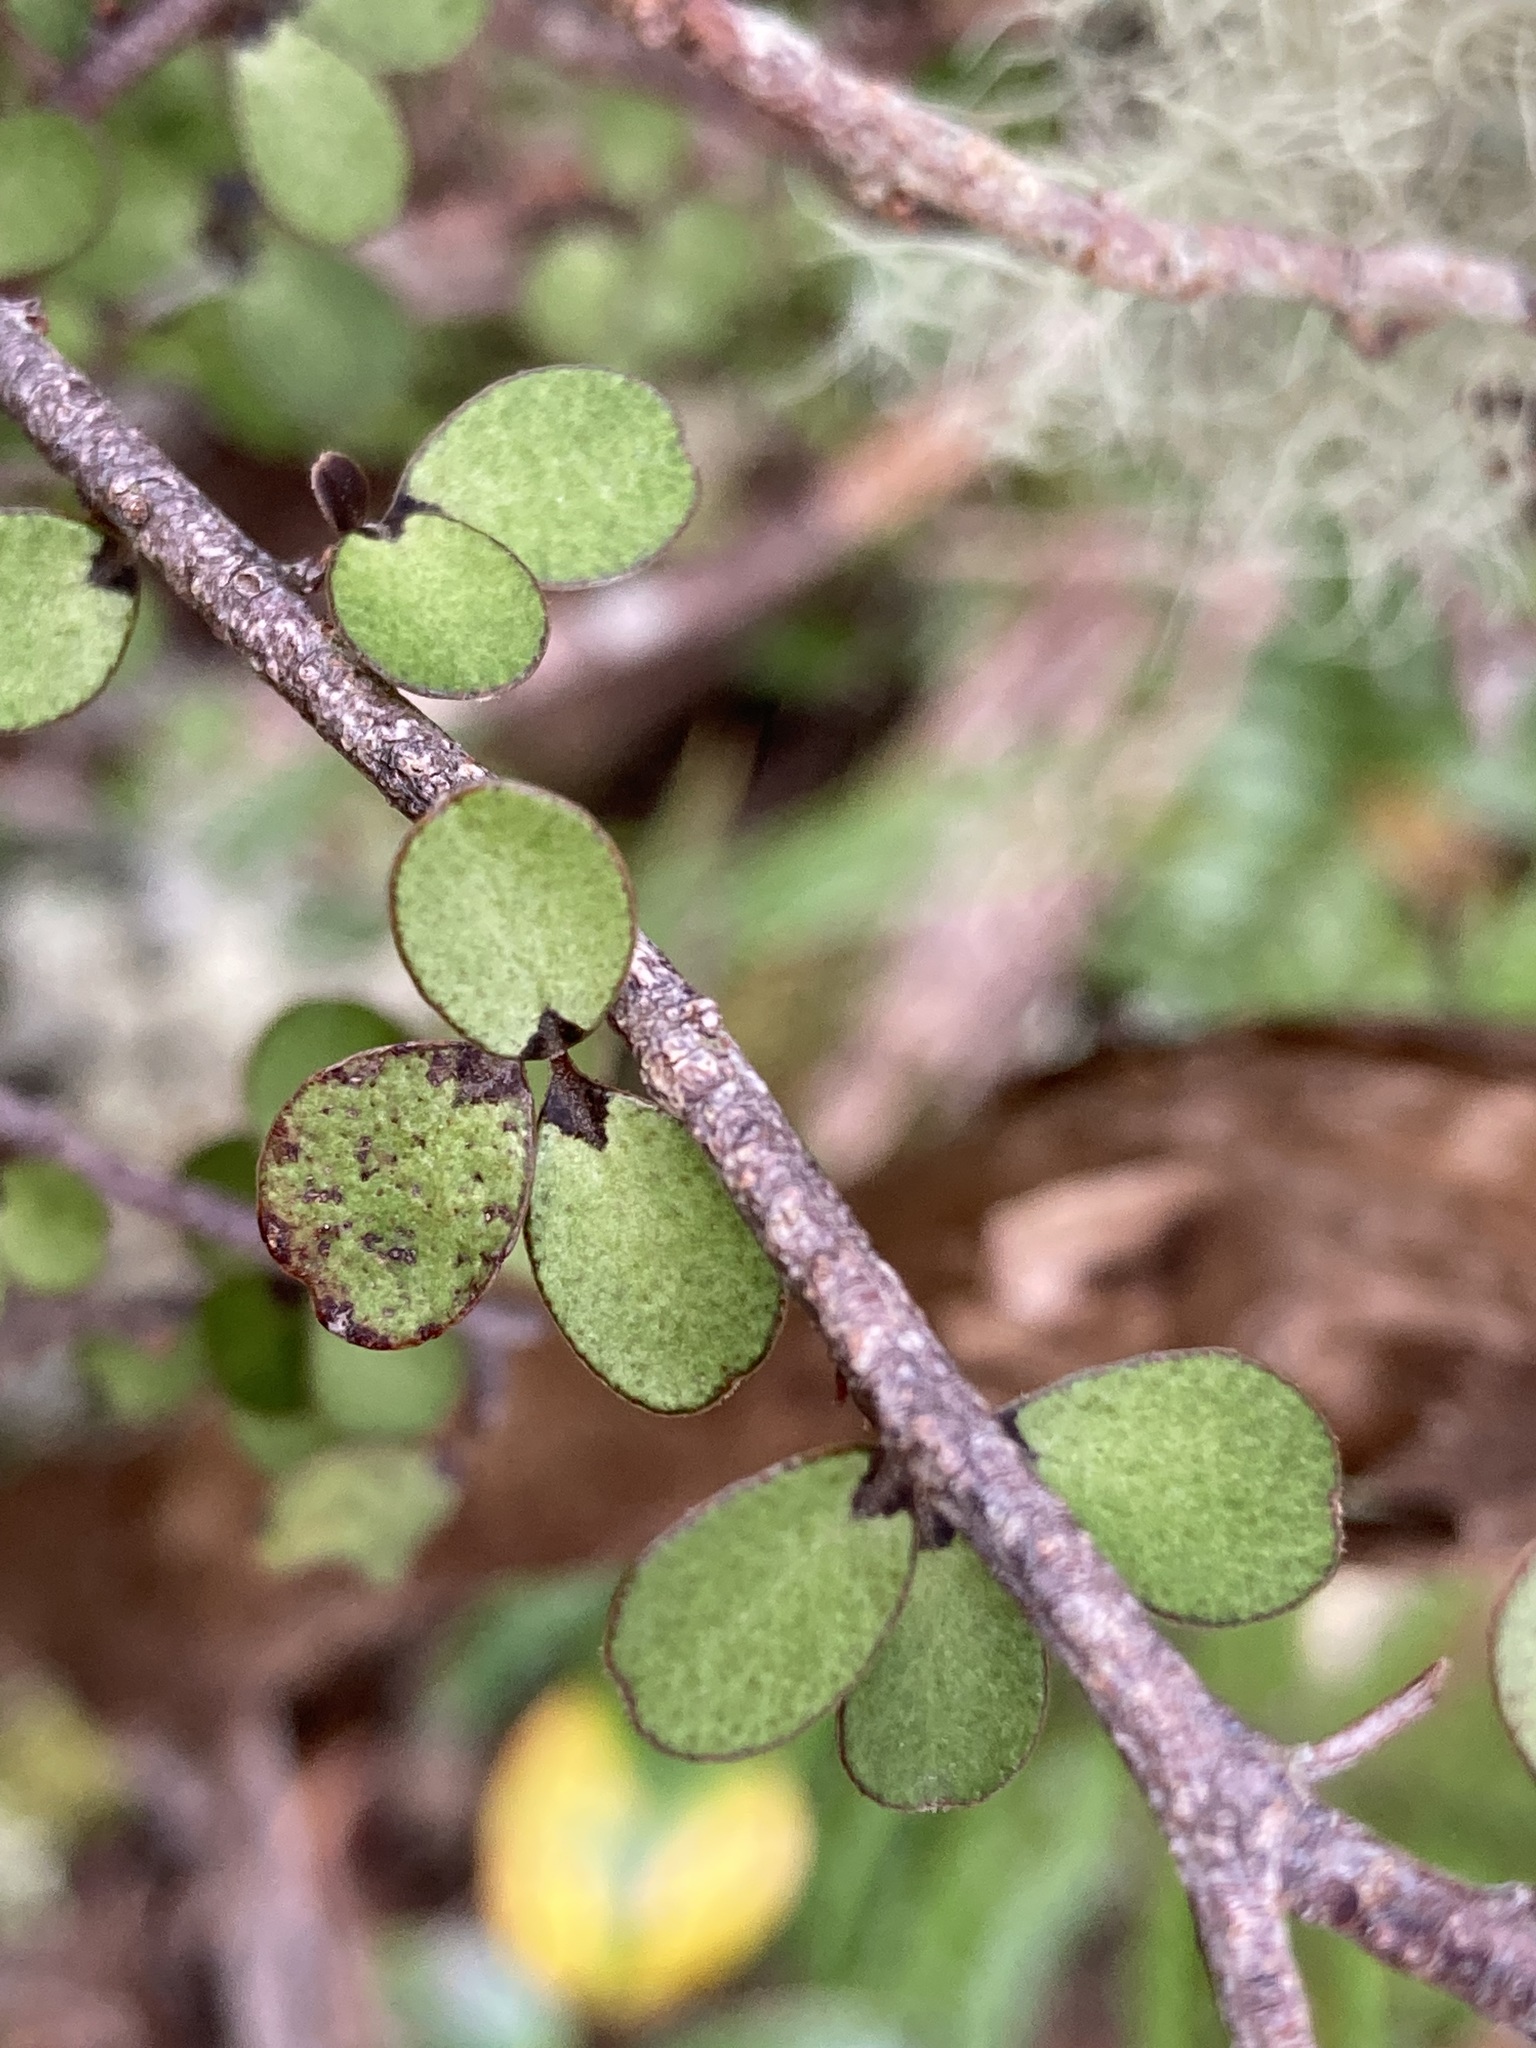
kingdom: Plantae
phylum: Tracheophyta
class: Magnoliopsida
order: Ericales
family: Primulaceae
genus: Myrsine
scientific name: Myrsine divaricata
